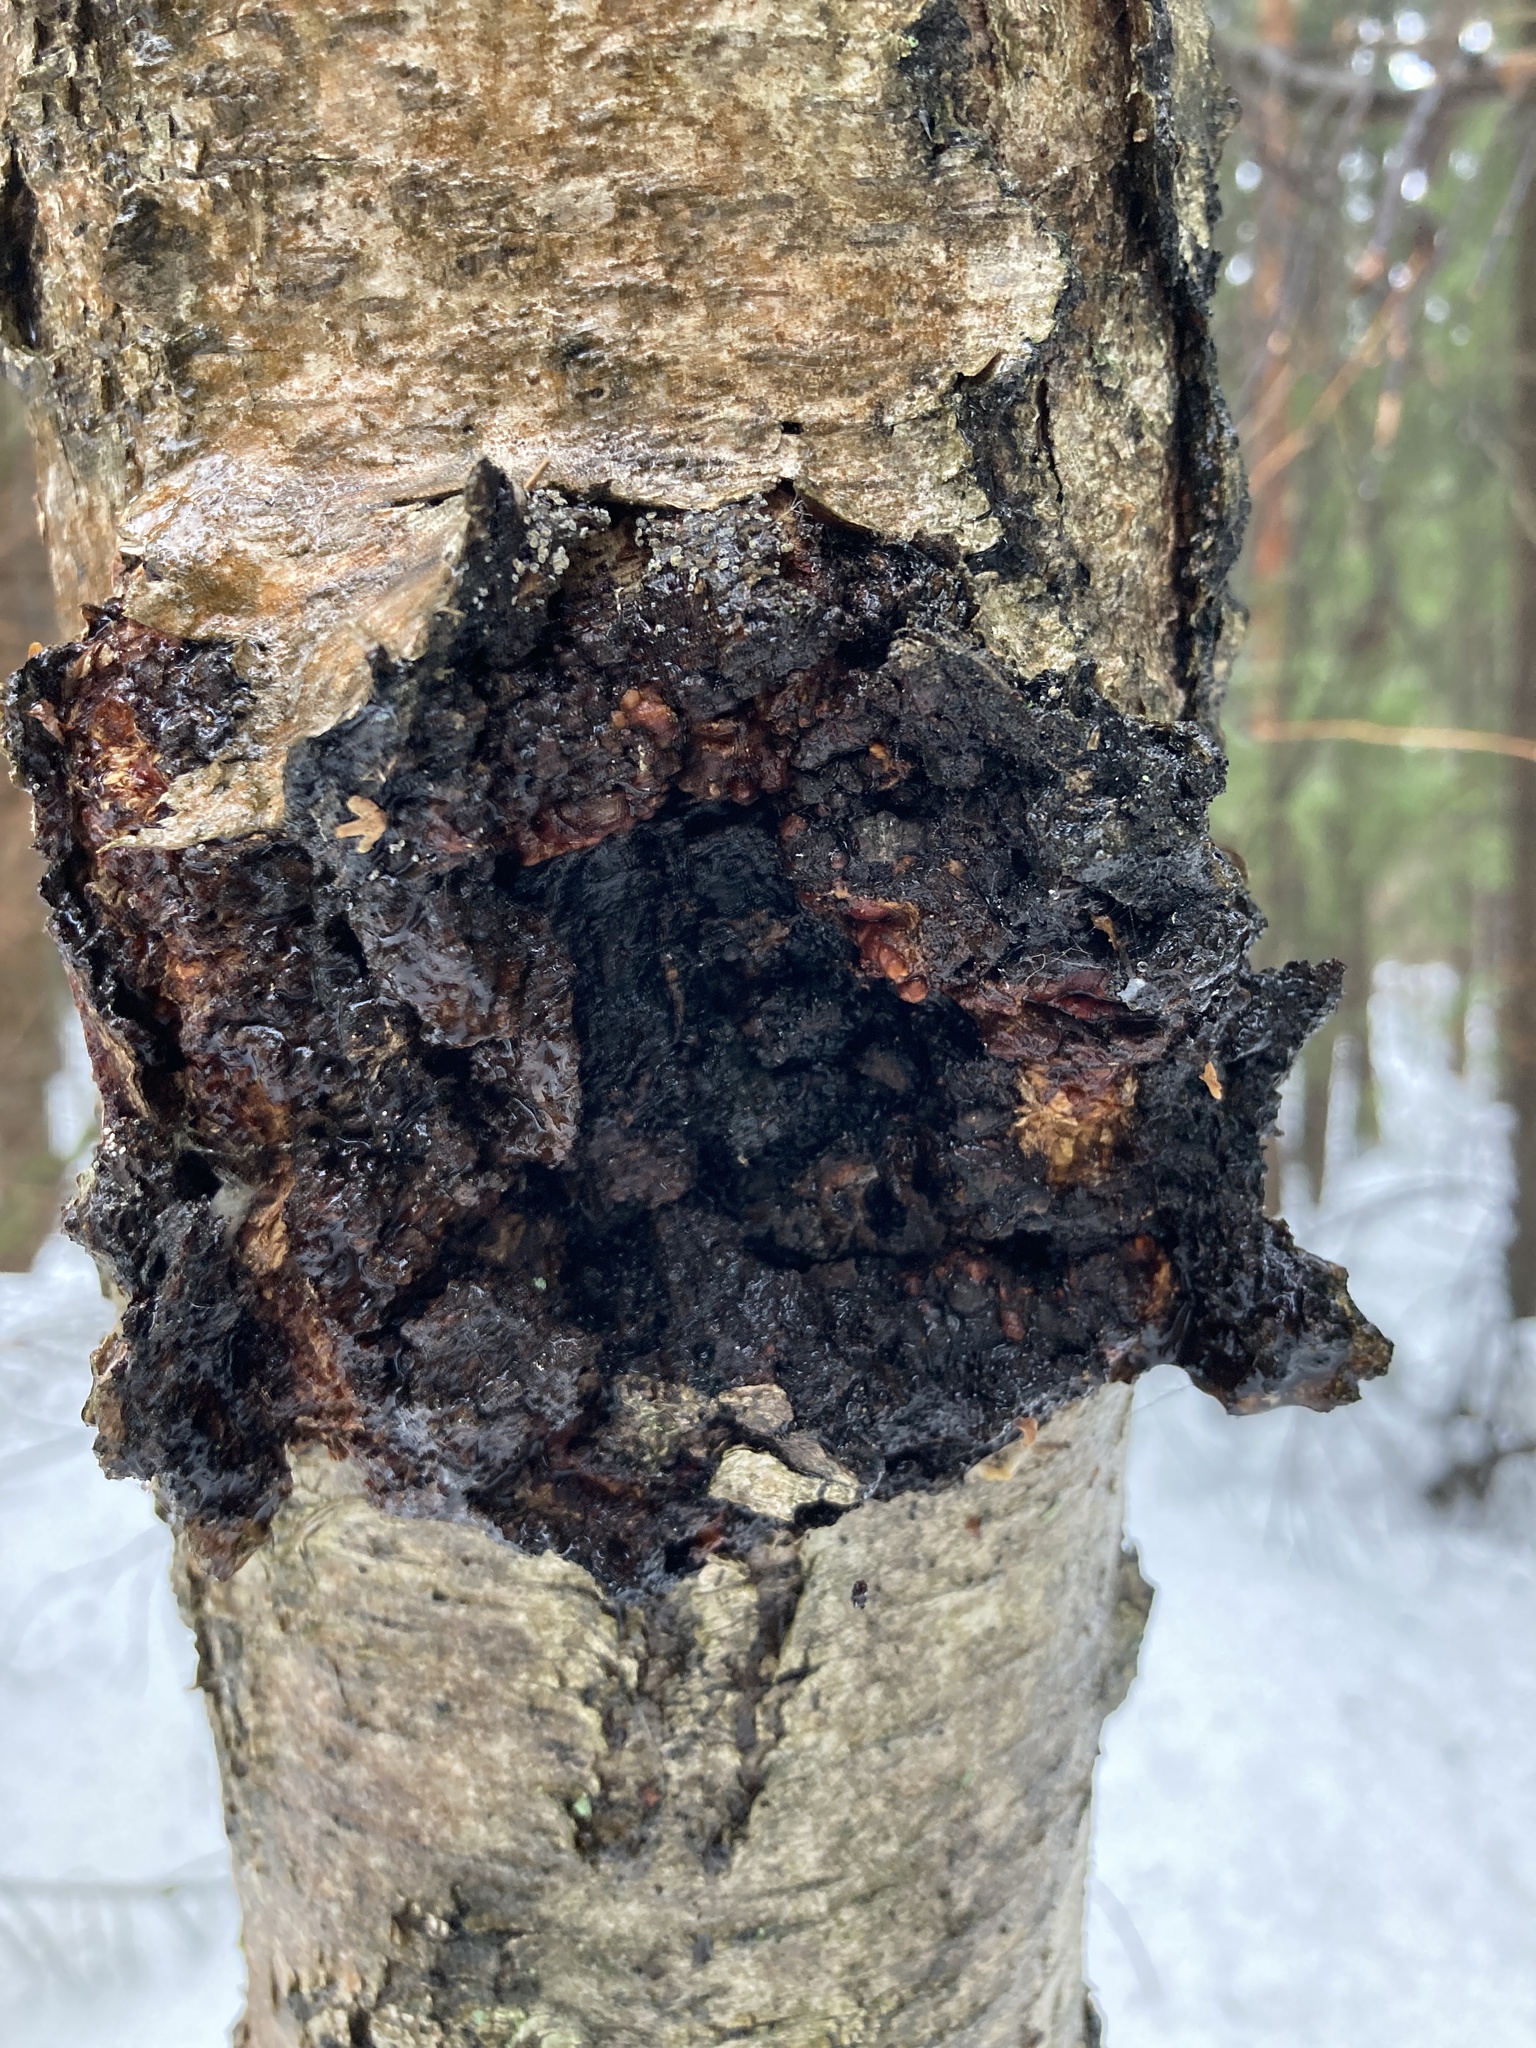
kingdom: Fungi
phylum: Basidiomycota
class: Agaricomycetes
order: Hymenochaetales
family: Hymenochaetaceae
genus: Inonotus
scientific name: Inonotus obliquus
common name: Chaga
